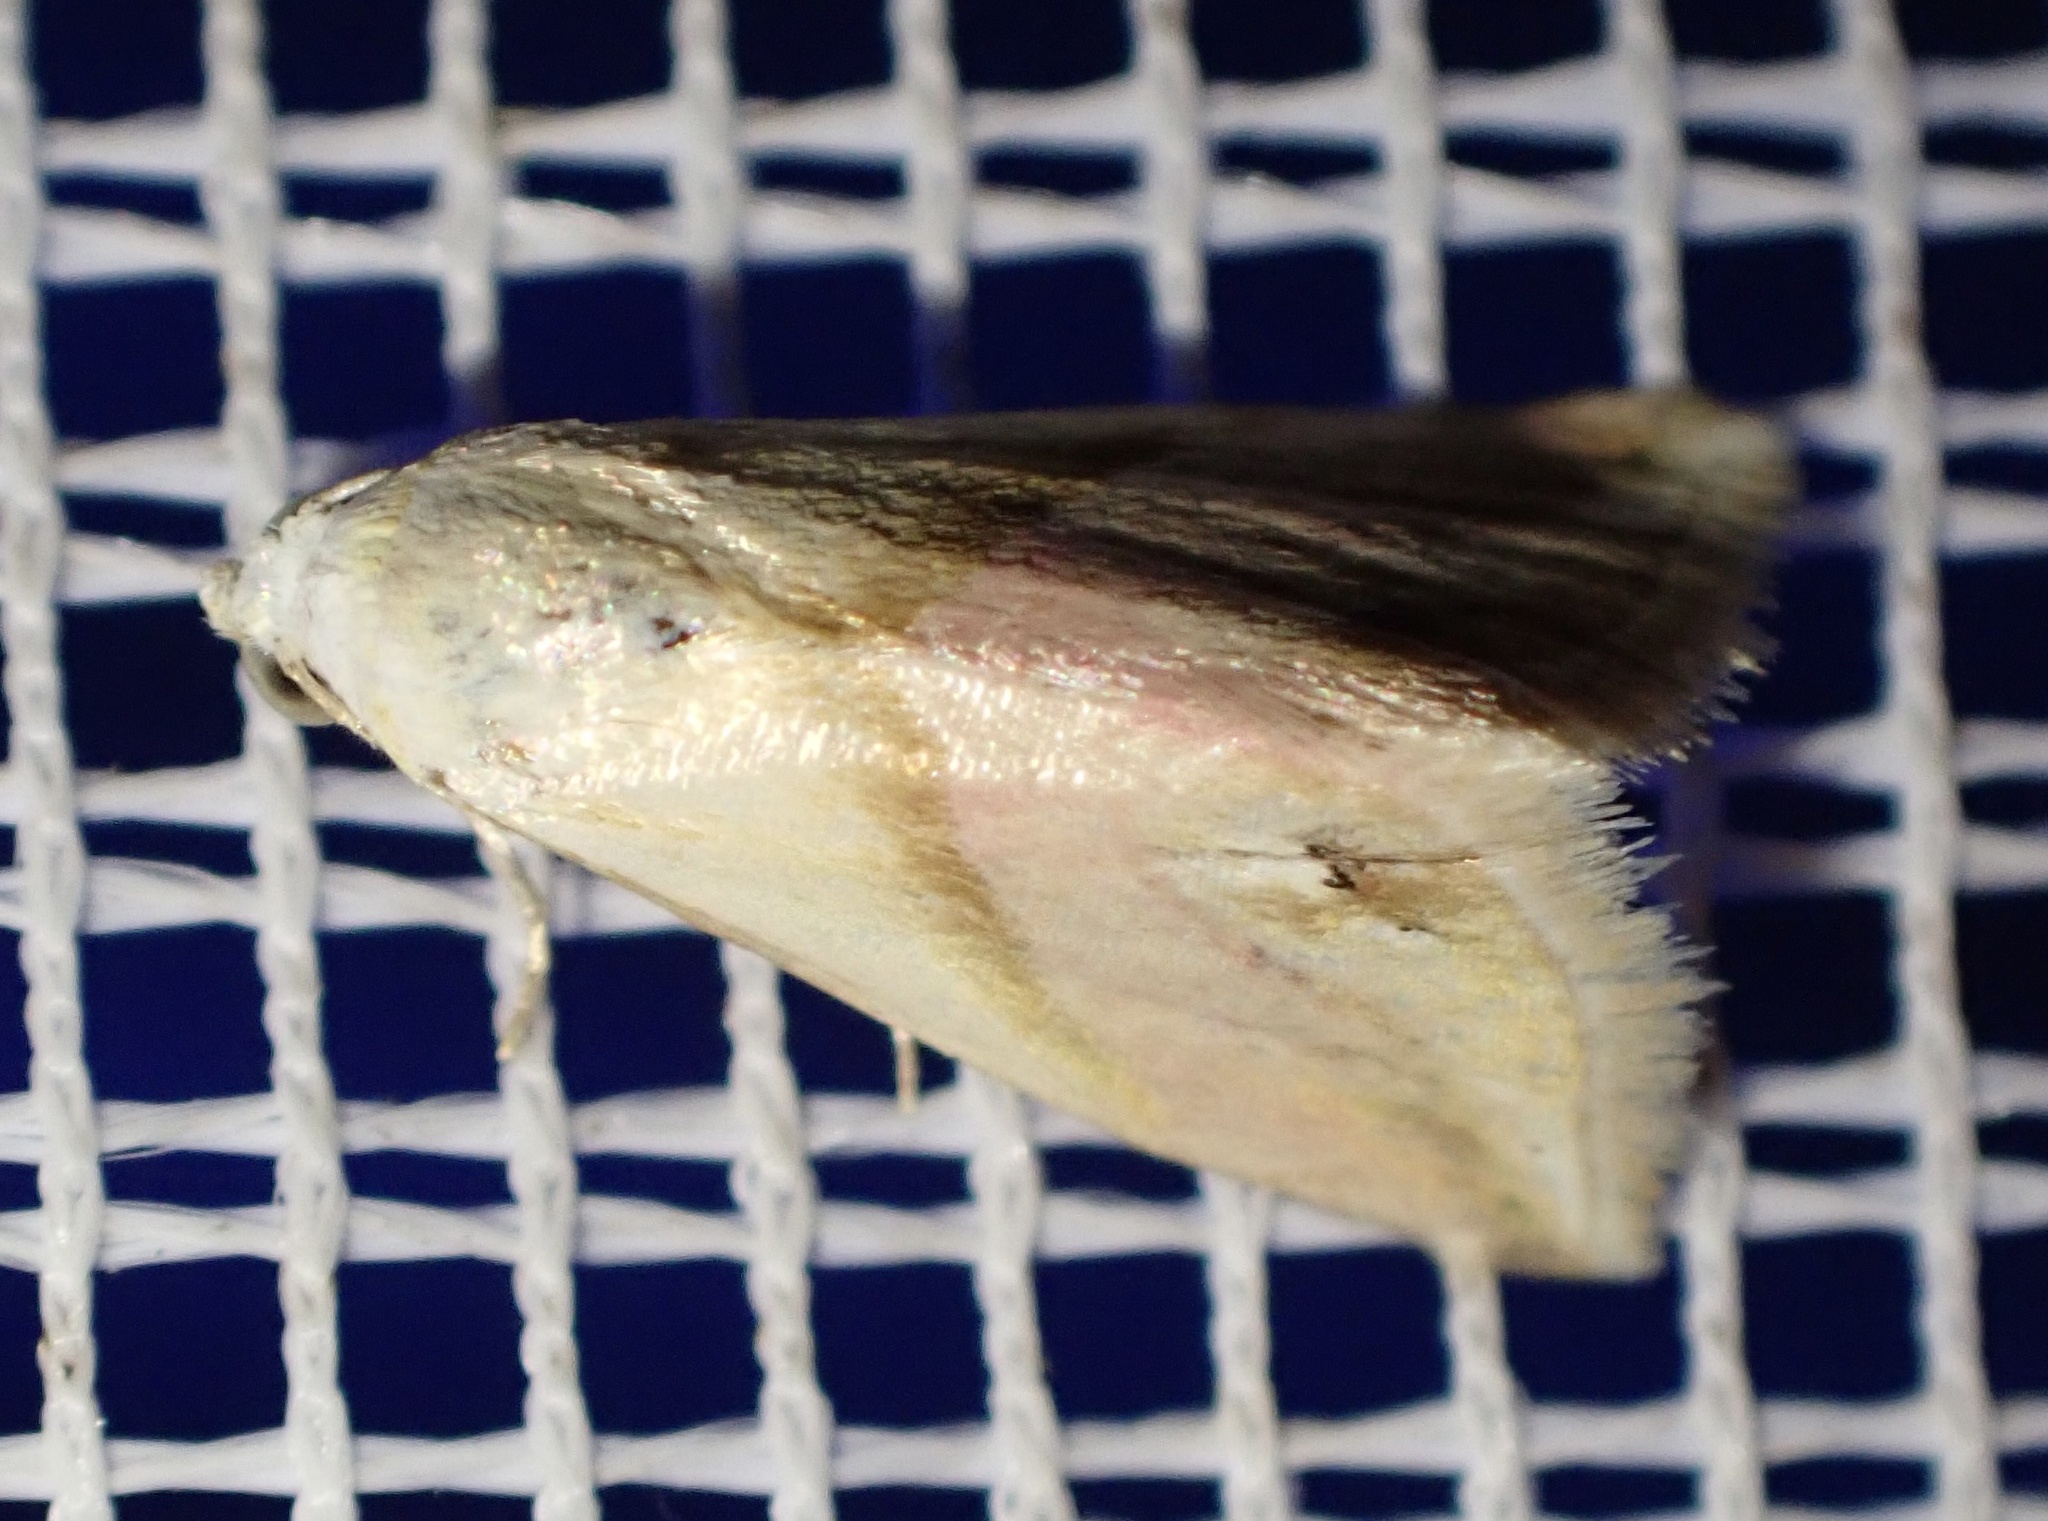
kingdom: Animalia
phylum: Arthropoda
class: Insecta
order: Lepidoptera
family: Noctuidae
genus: Eublemma
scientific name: Eublemma cochylioides
